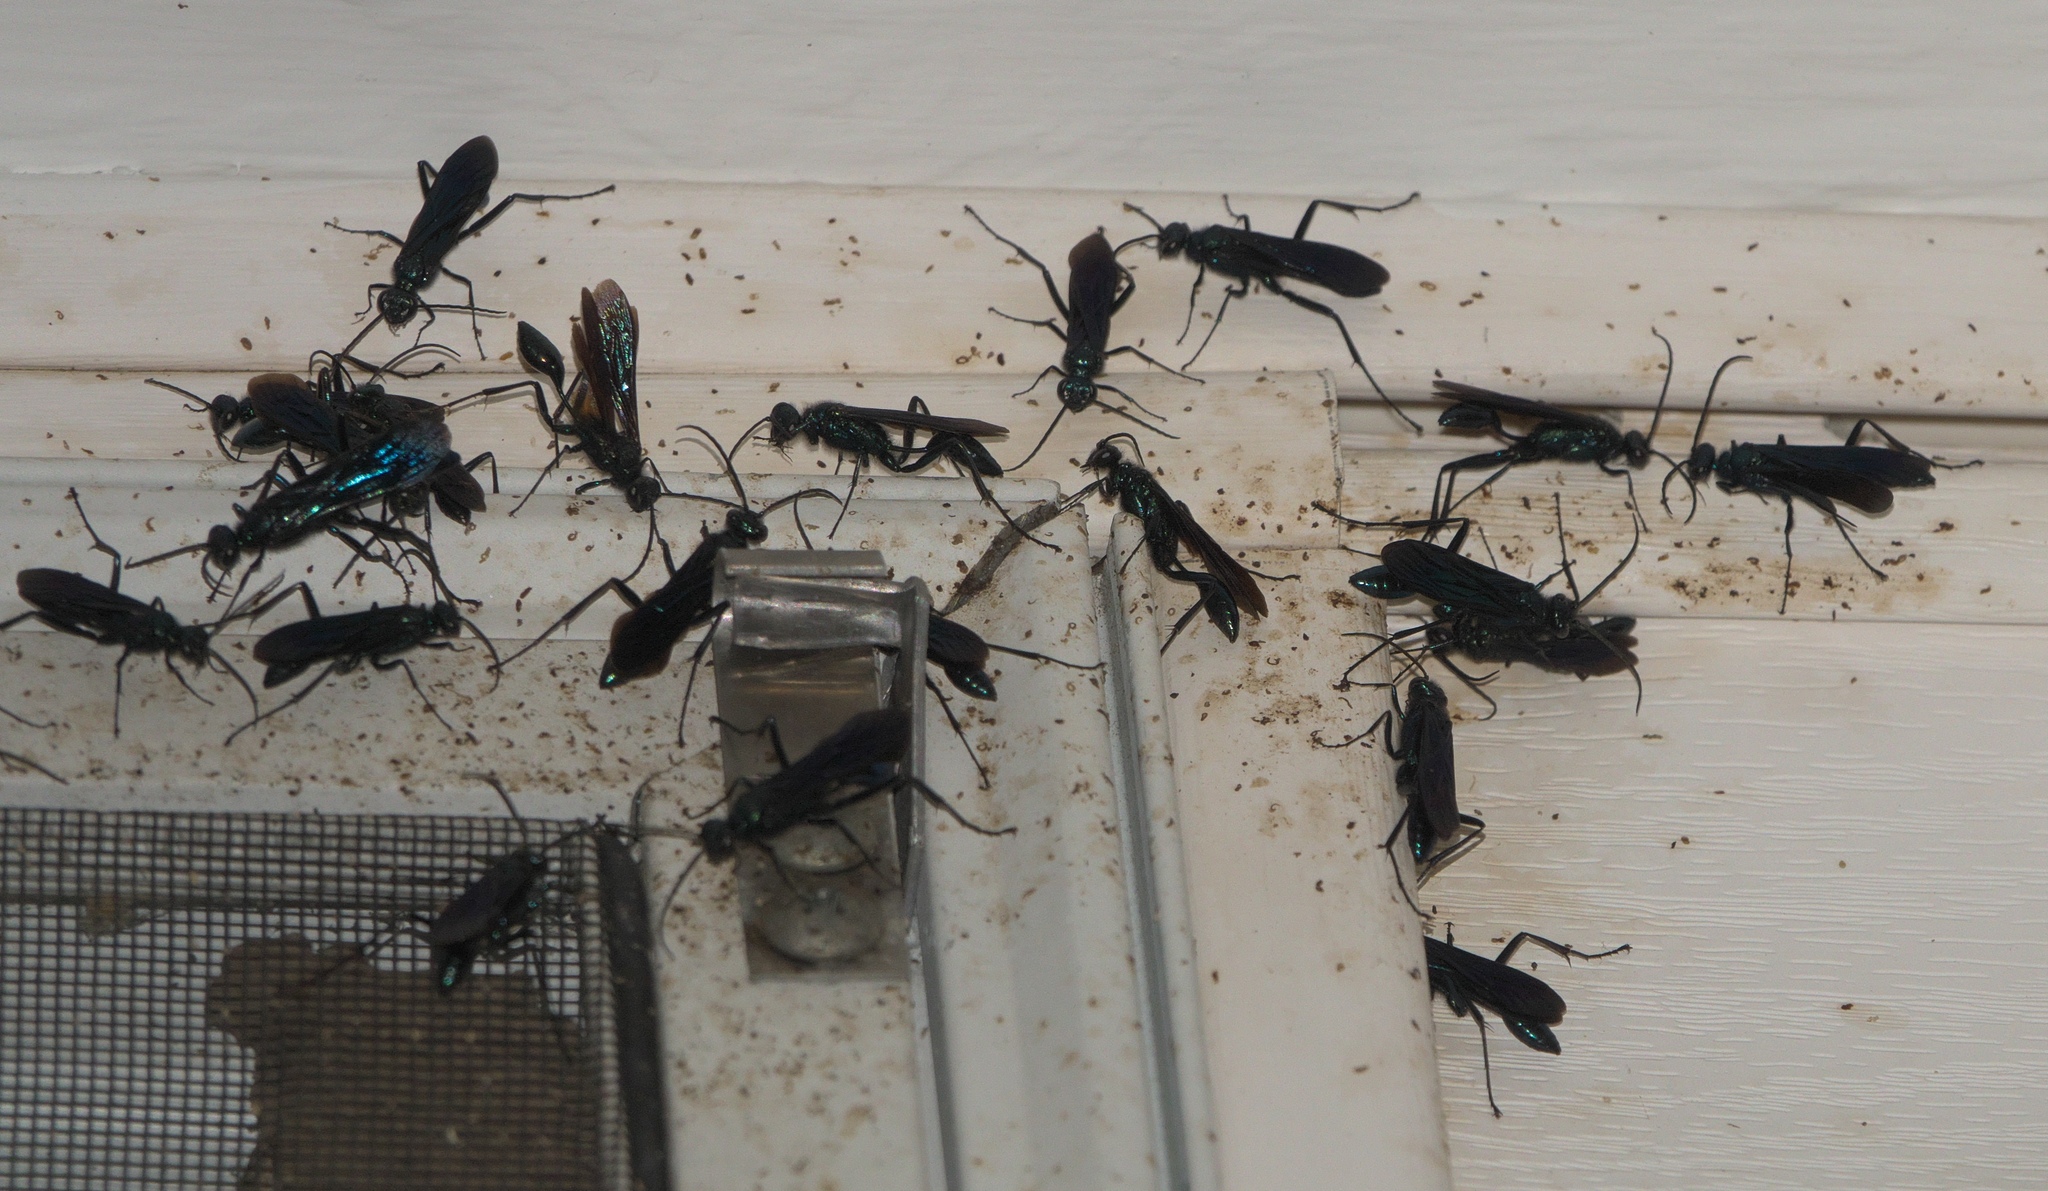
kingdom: Animalia
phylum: Arthropoda
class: Insecta
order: Hymenoptera
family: Sphecidae
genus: Chalybion
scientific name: Chalybion californicum
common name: Mud dauber
